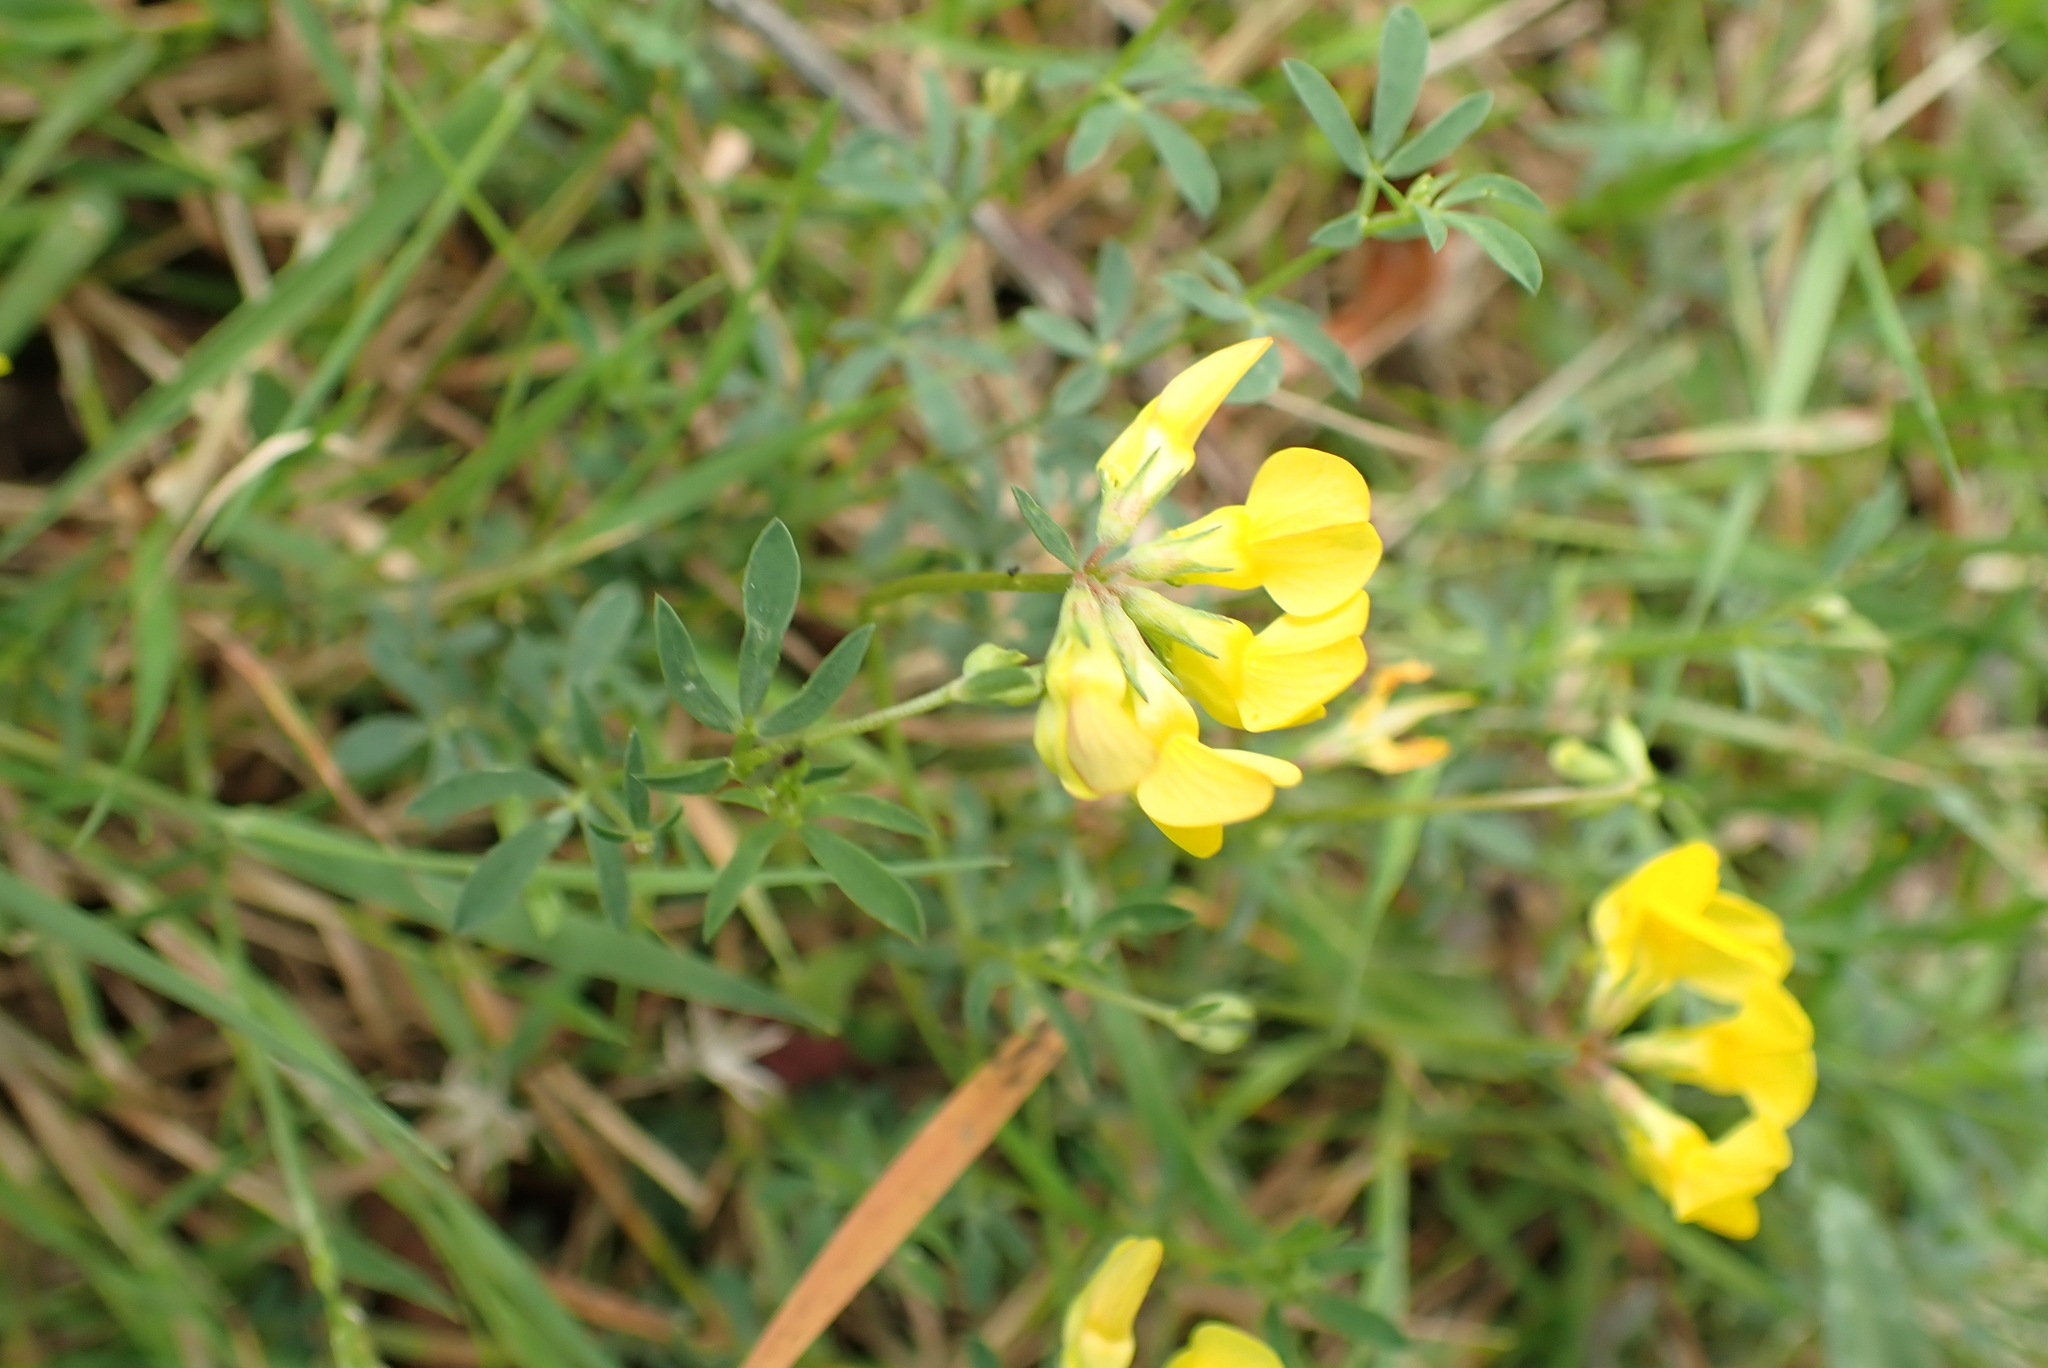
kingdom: Plantae
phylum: Tracheophyta
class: Magnoliopsida
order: Fabales
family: Fabaceae
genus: Lotus
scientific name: Lotus tenuis
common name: Narrow-leaved bird's-foot-trefoil
